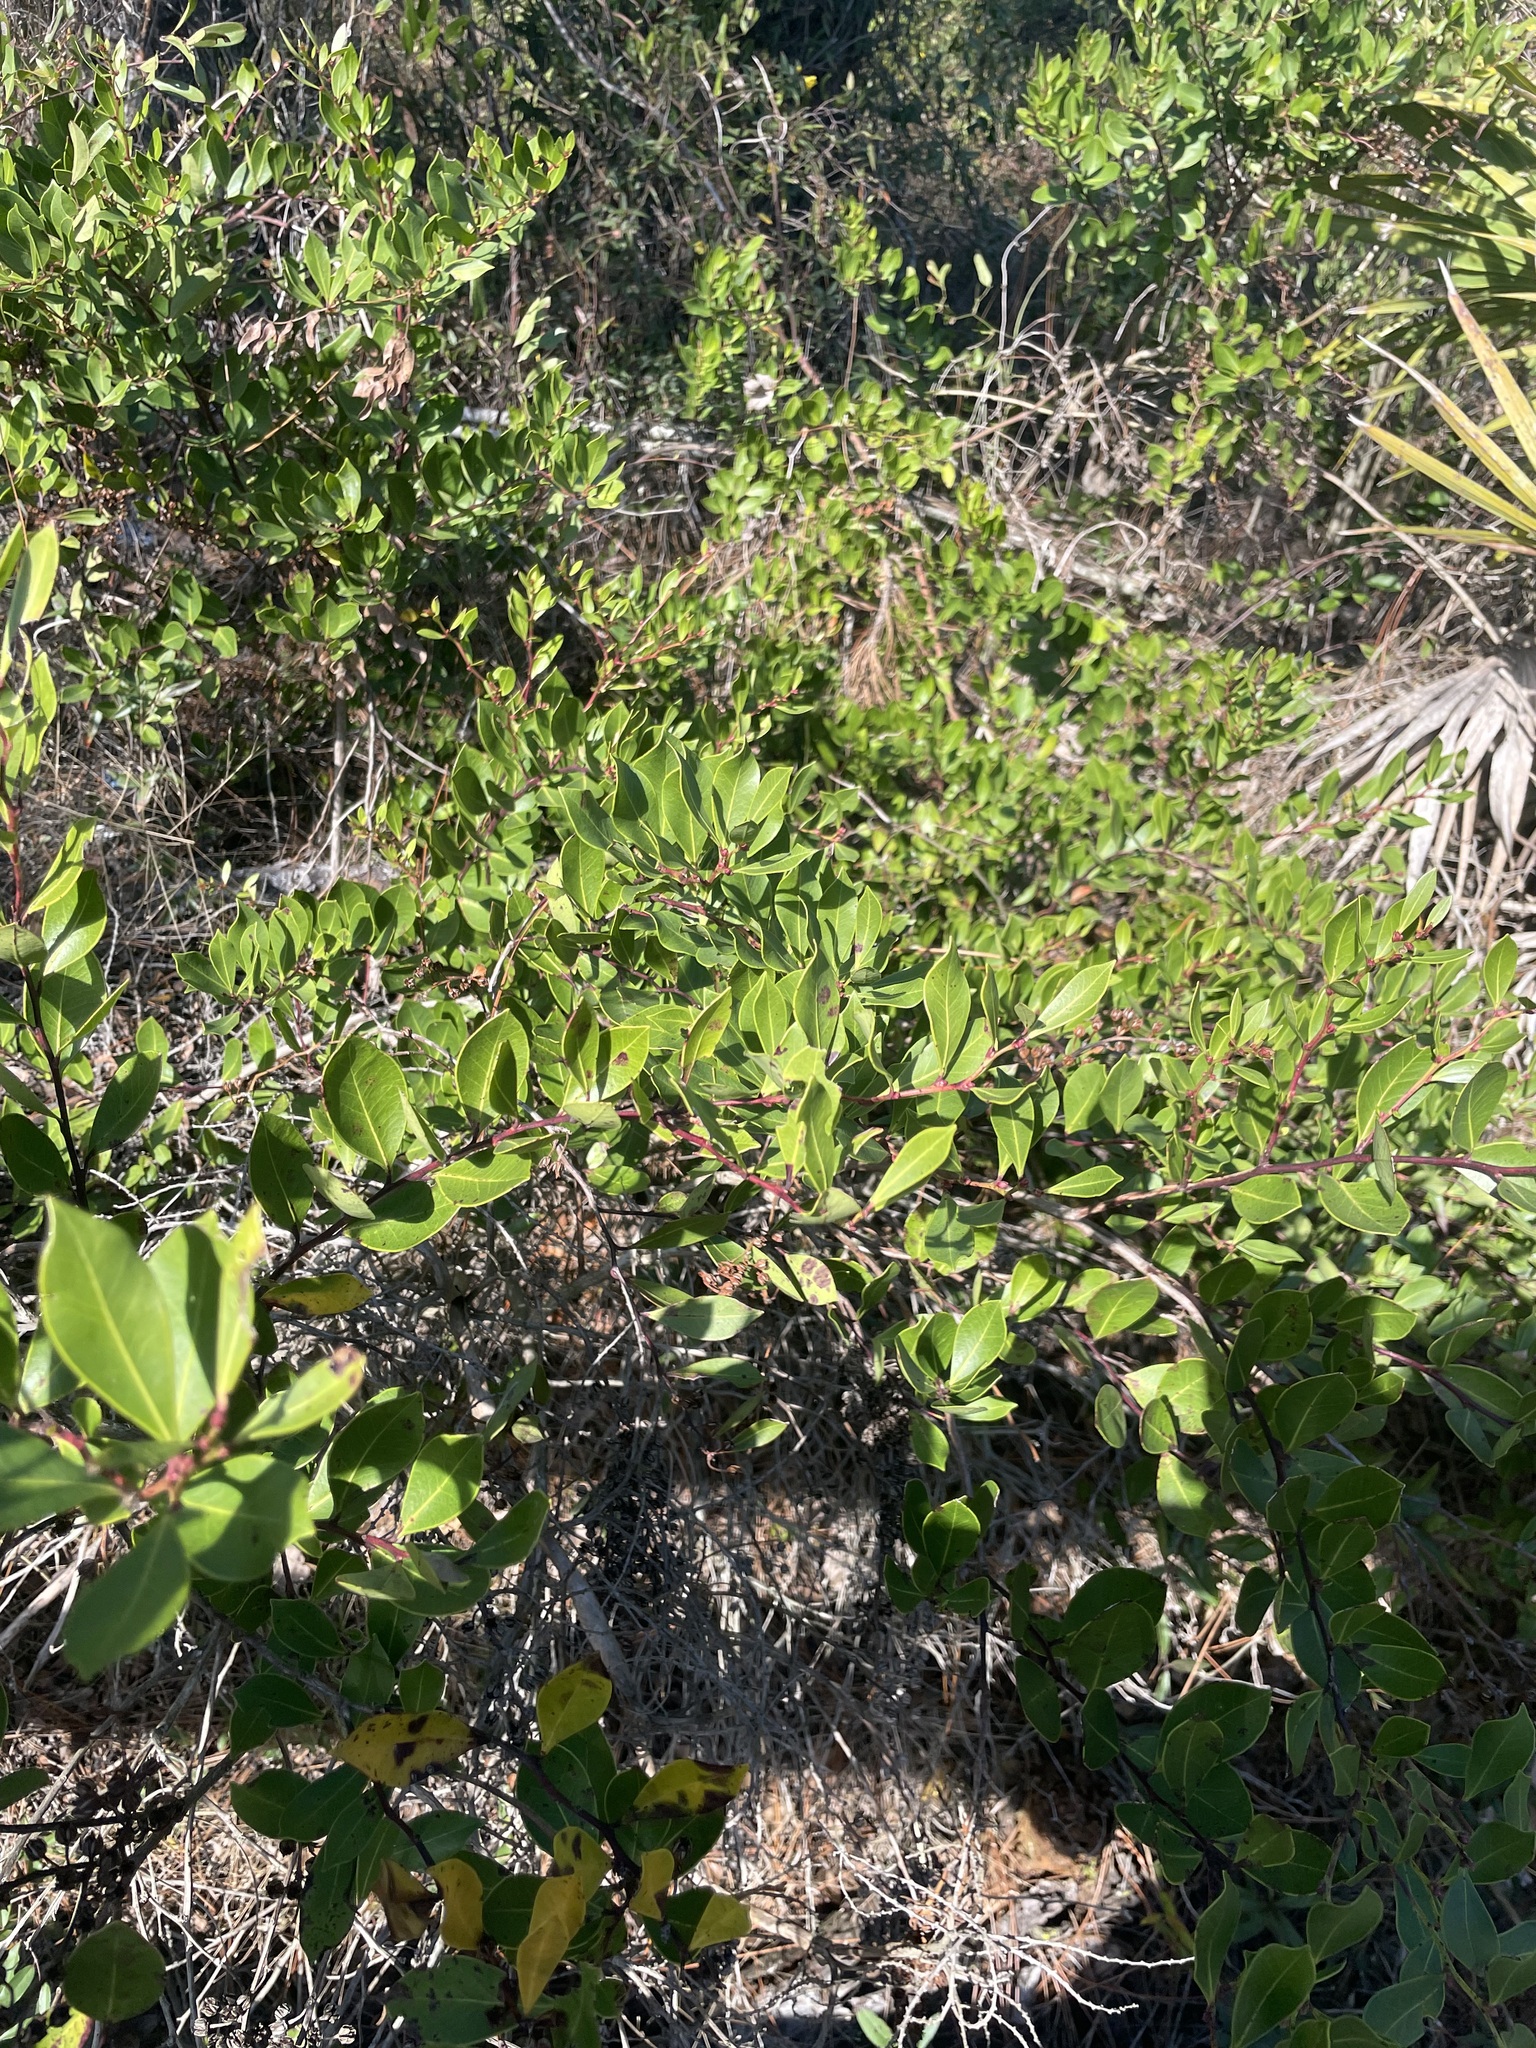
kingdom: Plantae
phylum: Tracheophyta
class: Magnoliopsida
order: Ericales
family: Ericaceae
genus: Lyonia
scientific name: Lyonia lucida
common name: Fetterbush
